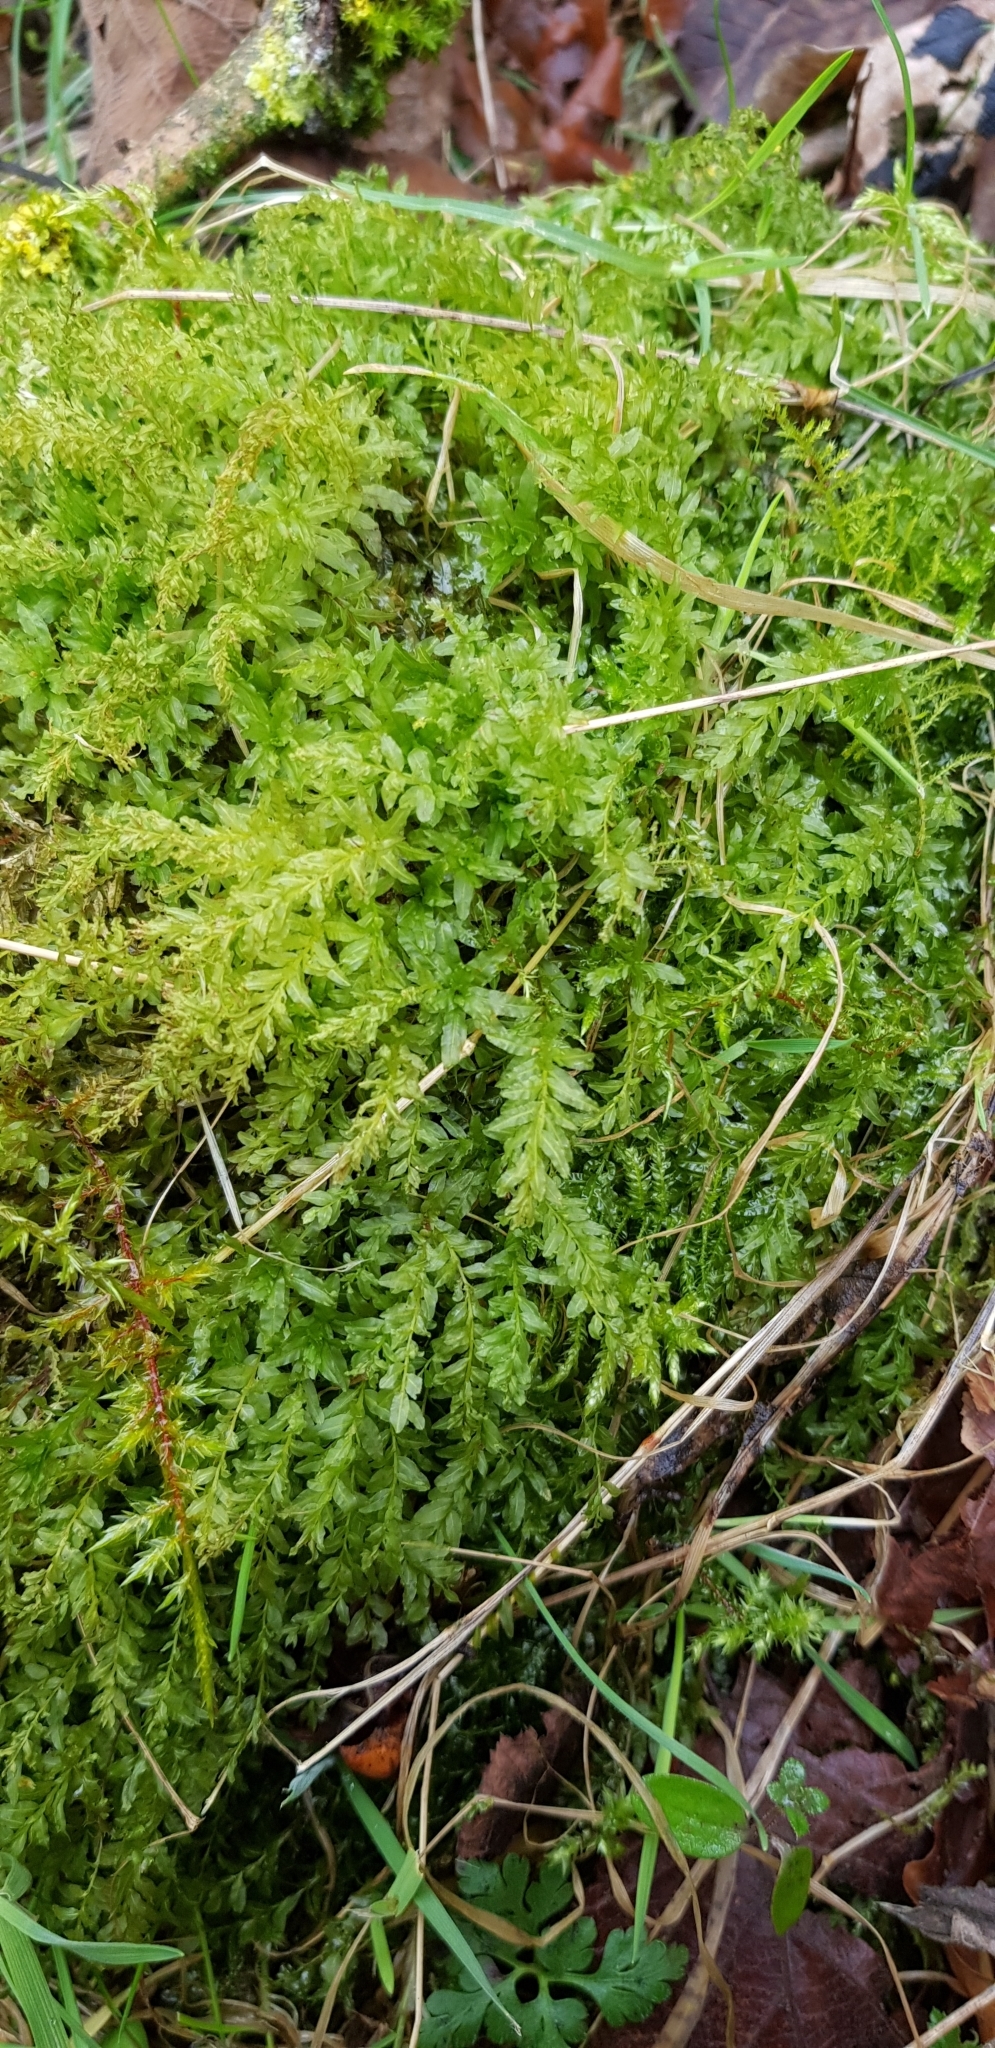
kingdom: Plantae
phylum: Bryophyta
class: Bryopsida
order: Bryales
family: Mniaceae
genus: Plagiomnium
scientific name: Plagiomnium undulatum
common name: Hart's-tongue thyme-moss
